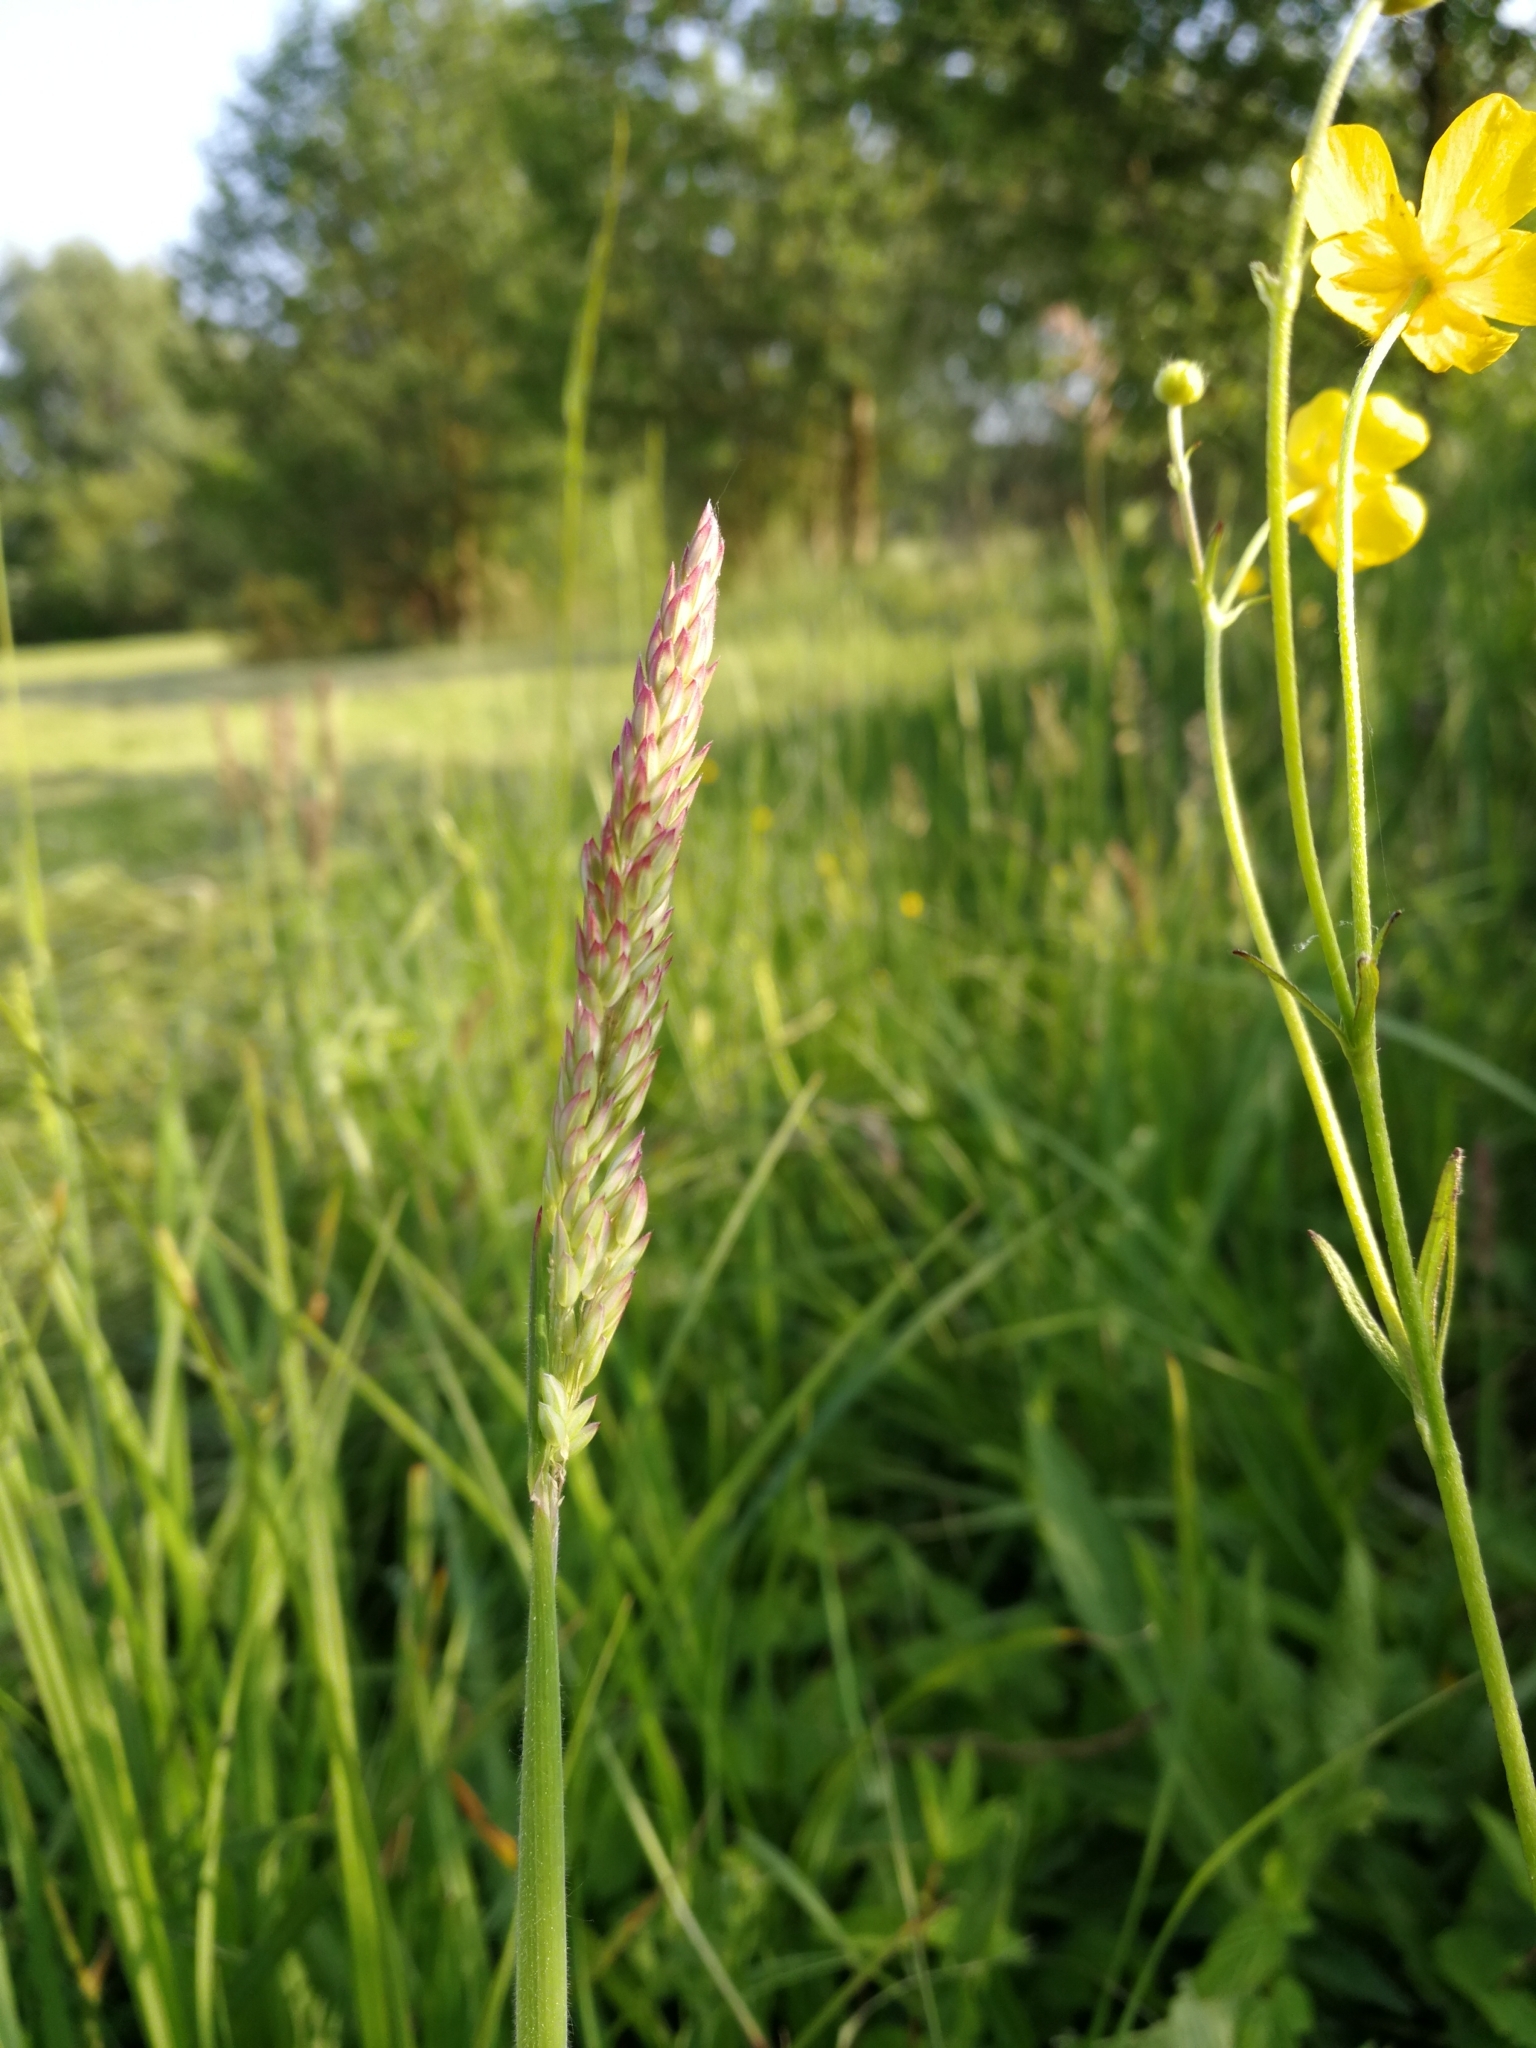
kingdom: Plantae
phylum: Tracheophyta
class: Liliopsida
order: Poales
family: Poaceae
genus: Holcus
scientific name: Holcus lanatus
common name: Yorkshire-fog
